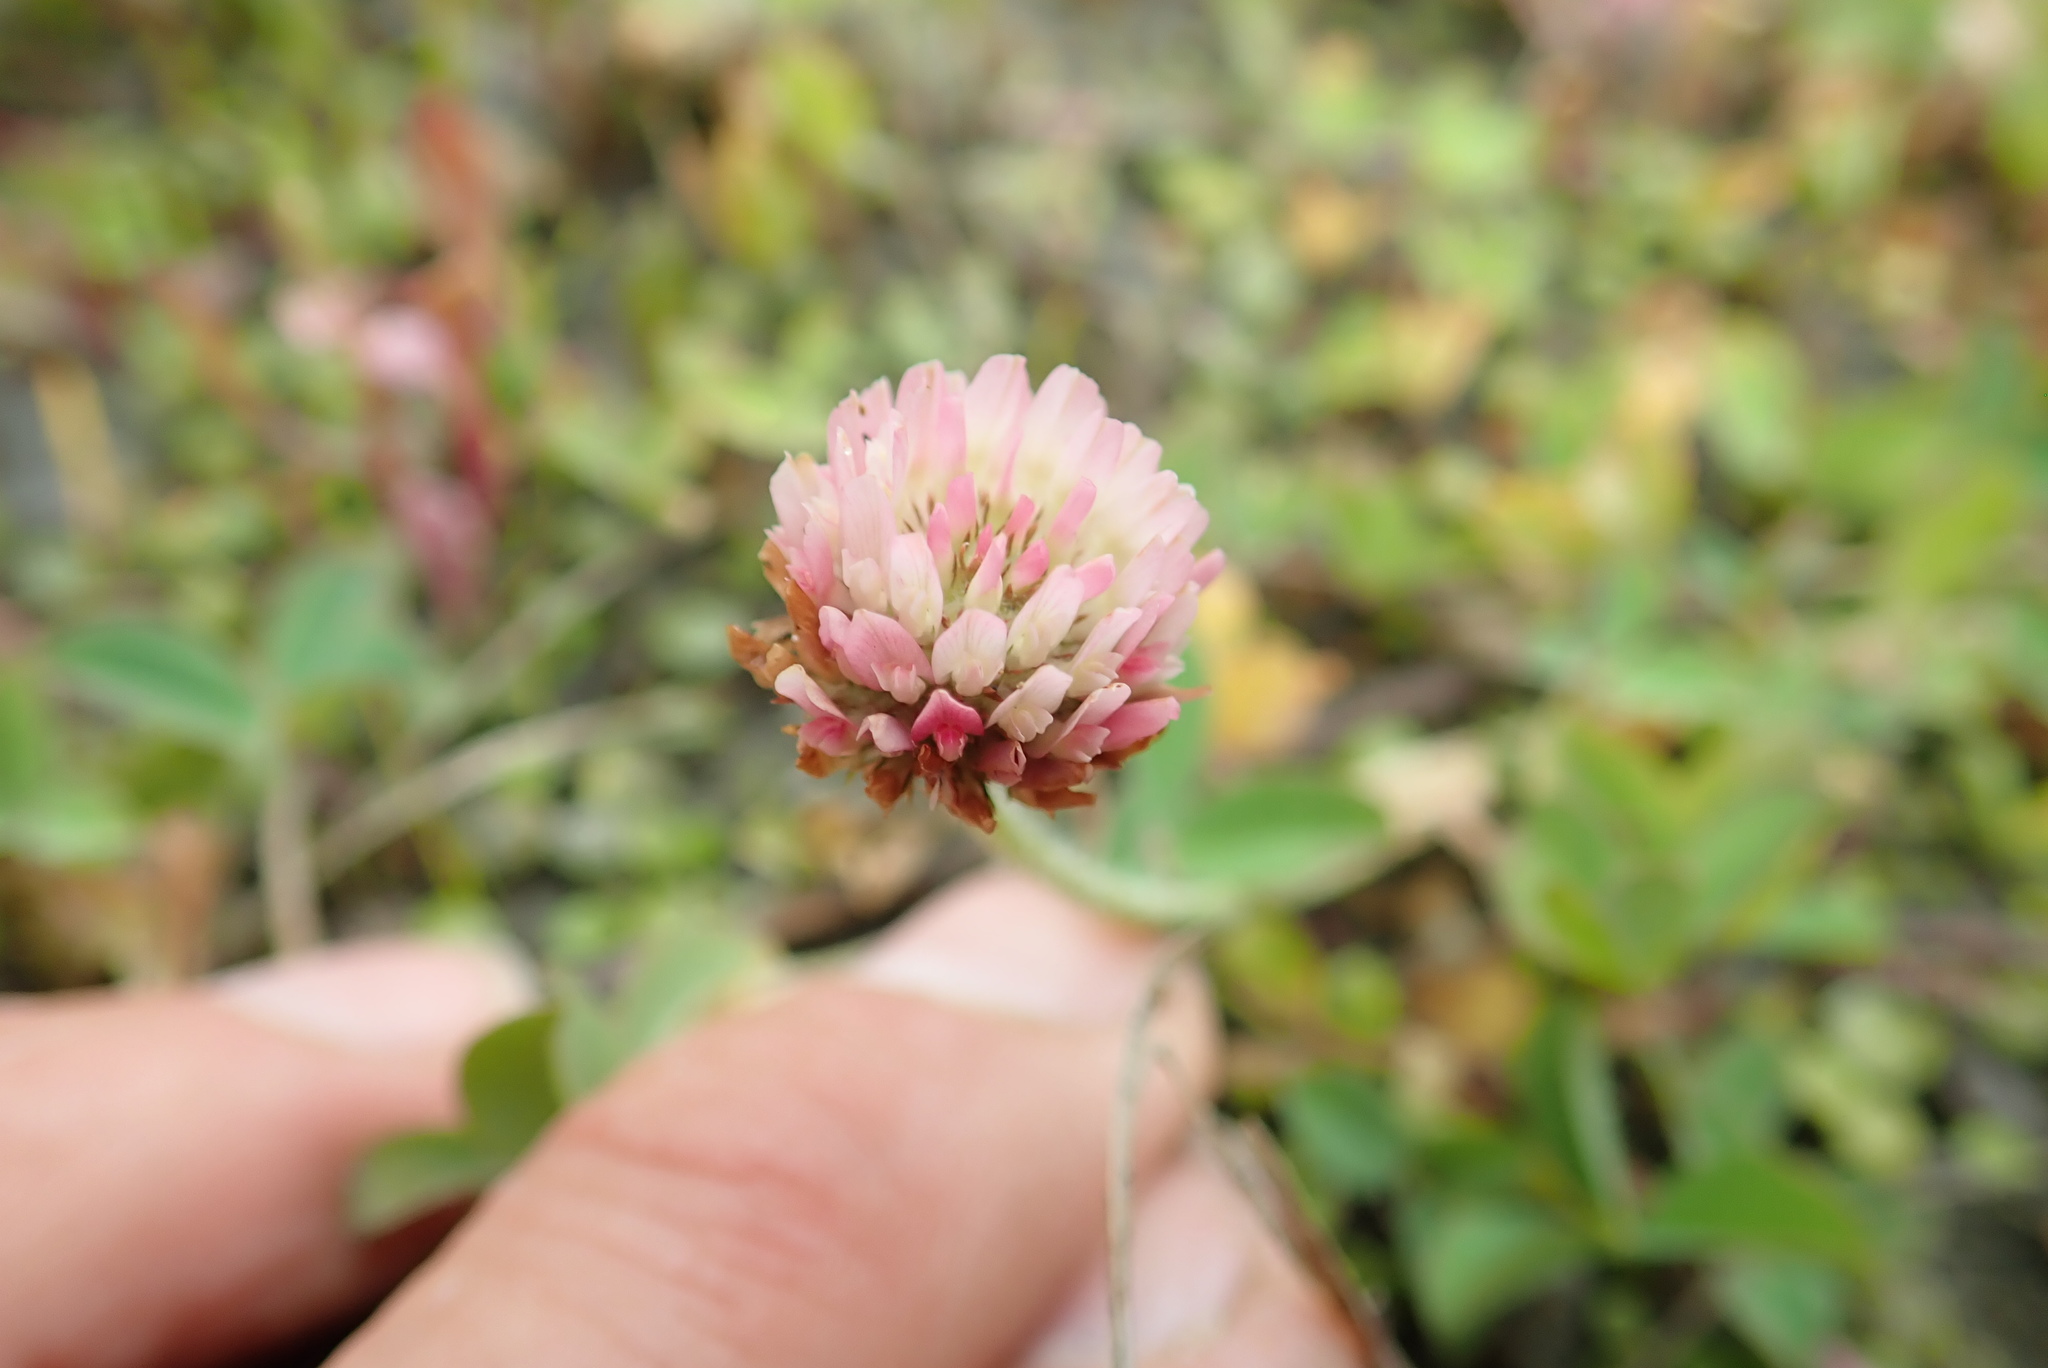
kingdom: Plantae
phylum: Tracheophyta
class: Magnoliopsida
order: Fabales
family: Fabaceae
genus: Trifolium
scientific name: Trifolium fragiferum
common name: Strawberry clover
